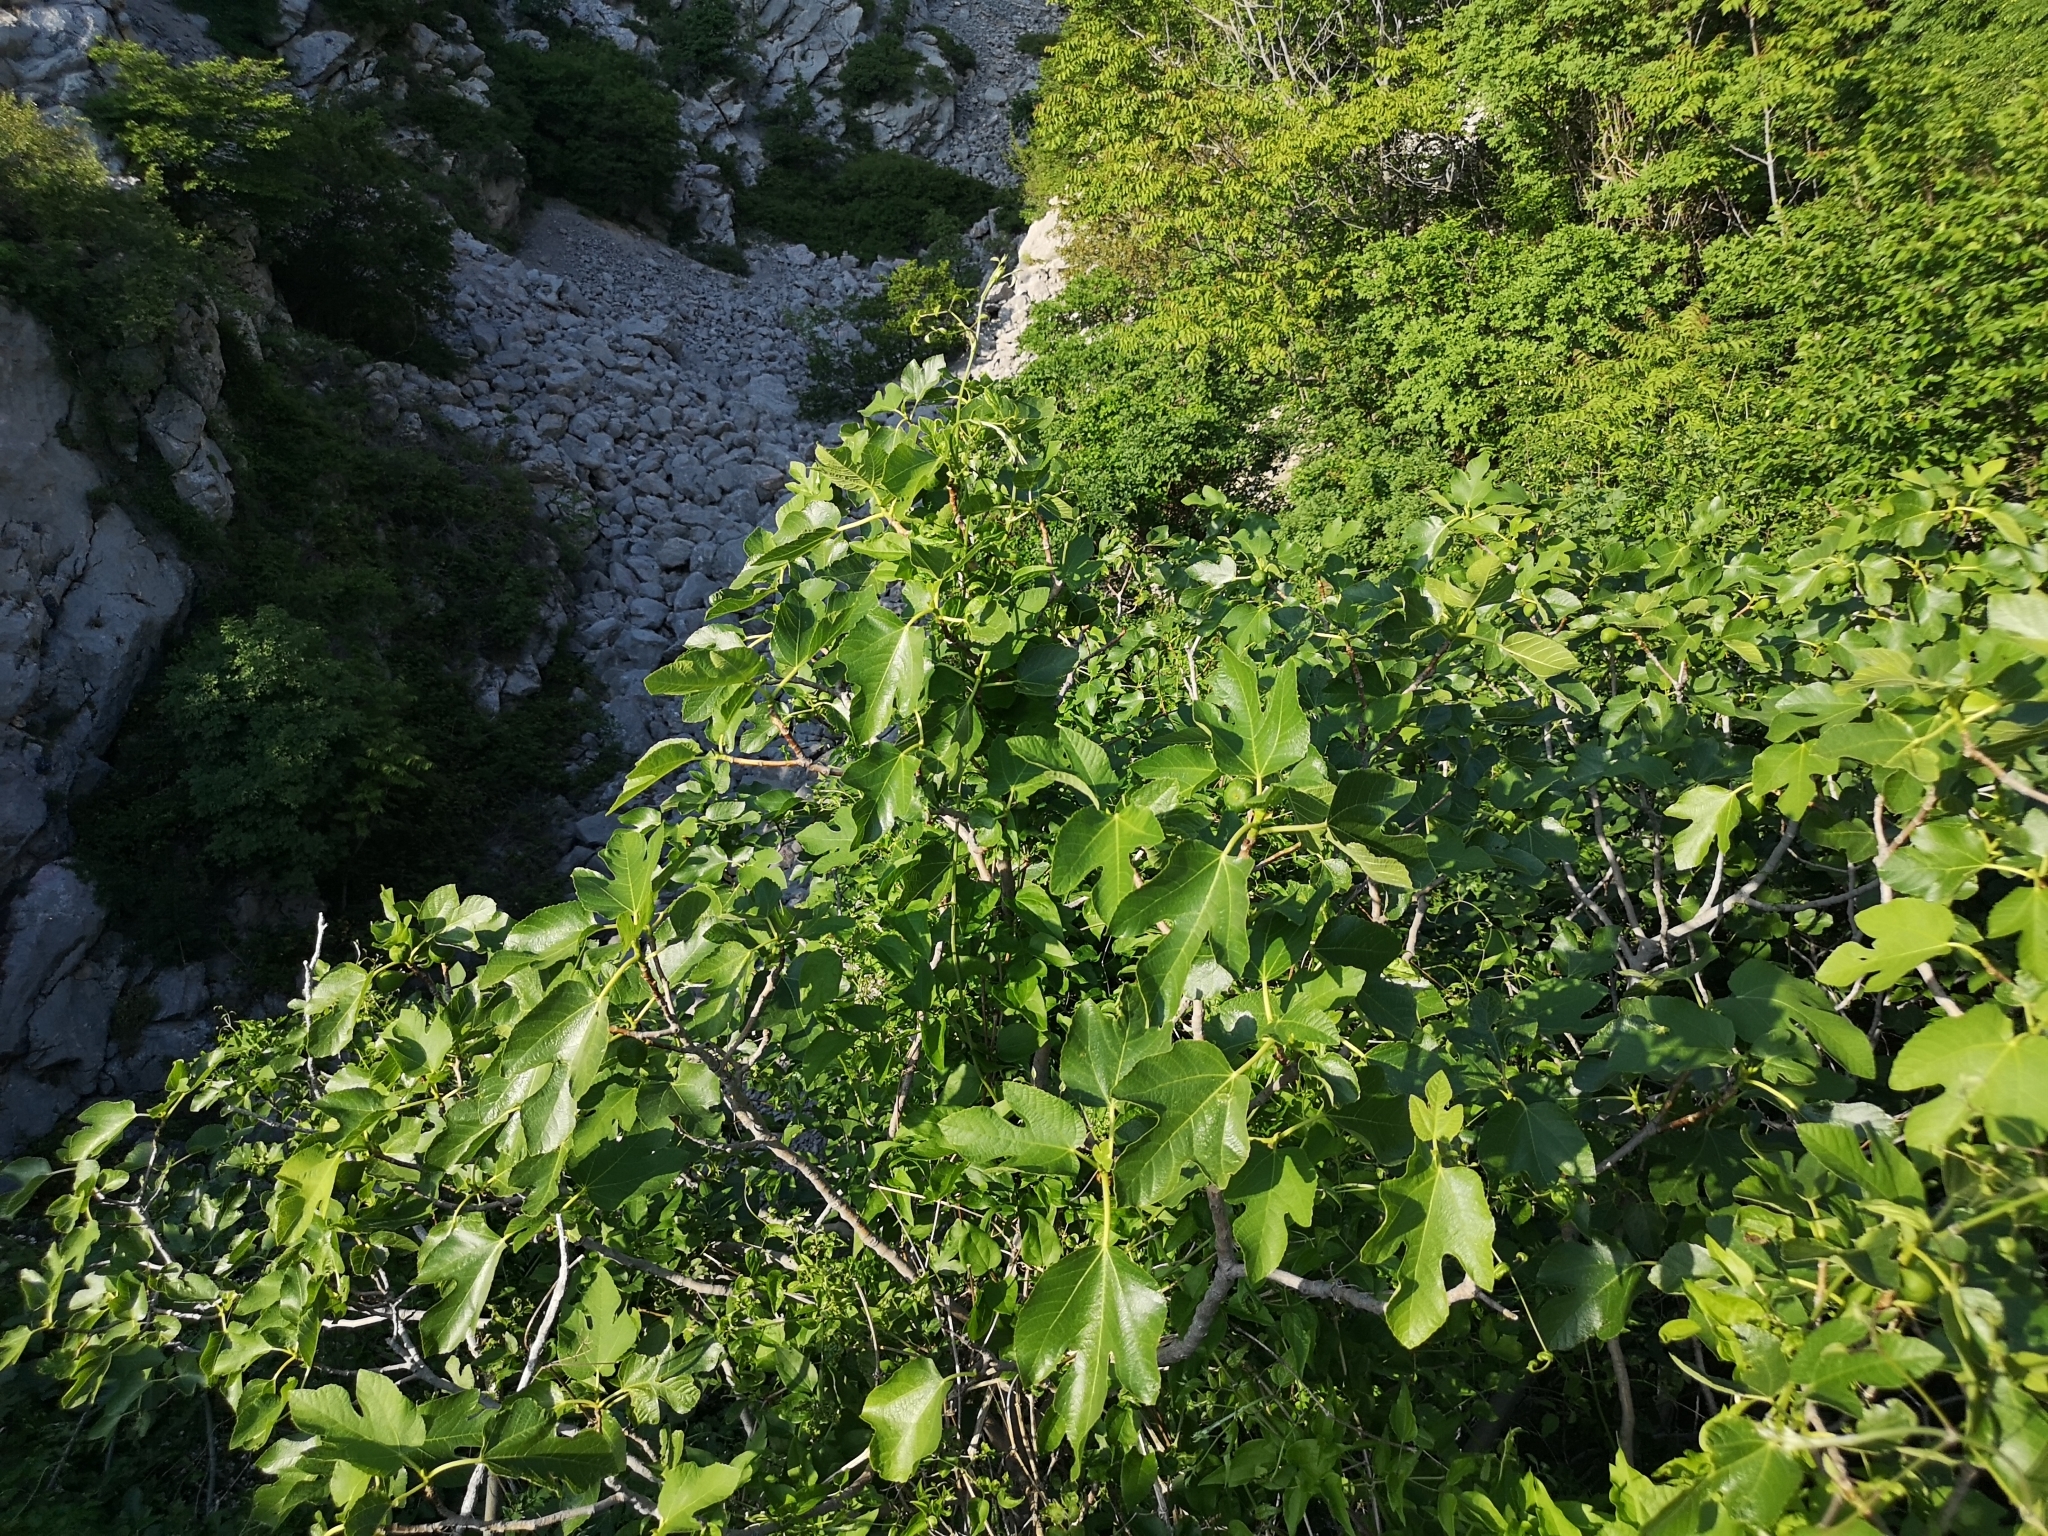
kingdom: Plantae
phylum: Tracheophyta
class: Magnoliopsida
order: Rosales
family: Moraceae
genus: Ficus
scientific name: Ficus carica
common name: Fig
